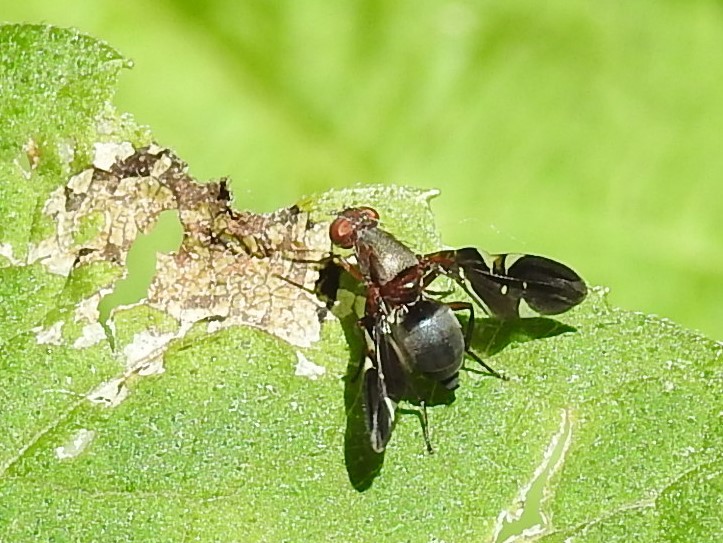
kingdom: Animalia
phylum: Arthropoda
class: Insecta
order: Diptera
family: Ulidiidae
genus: Delphinia
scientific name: Delphinia picta
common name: Common picture-winged fly
